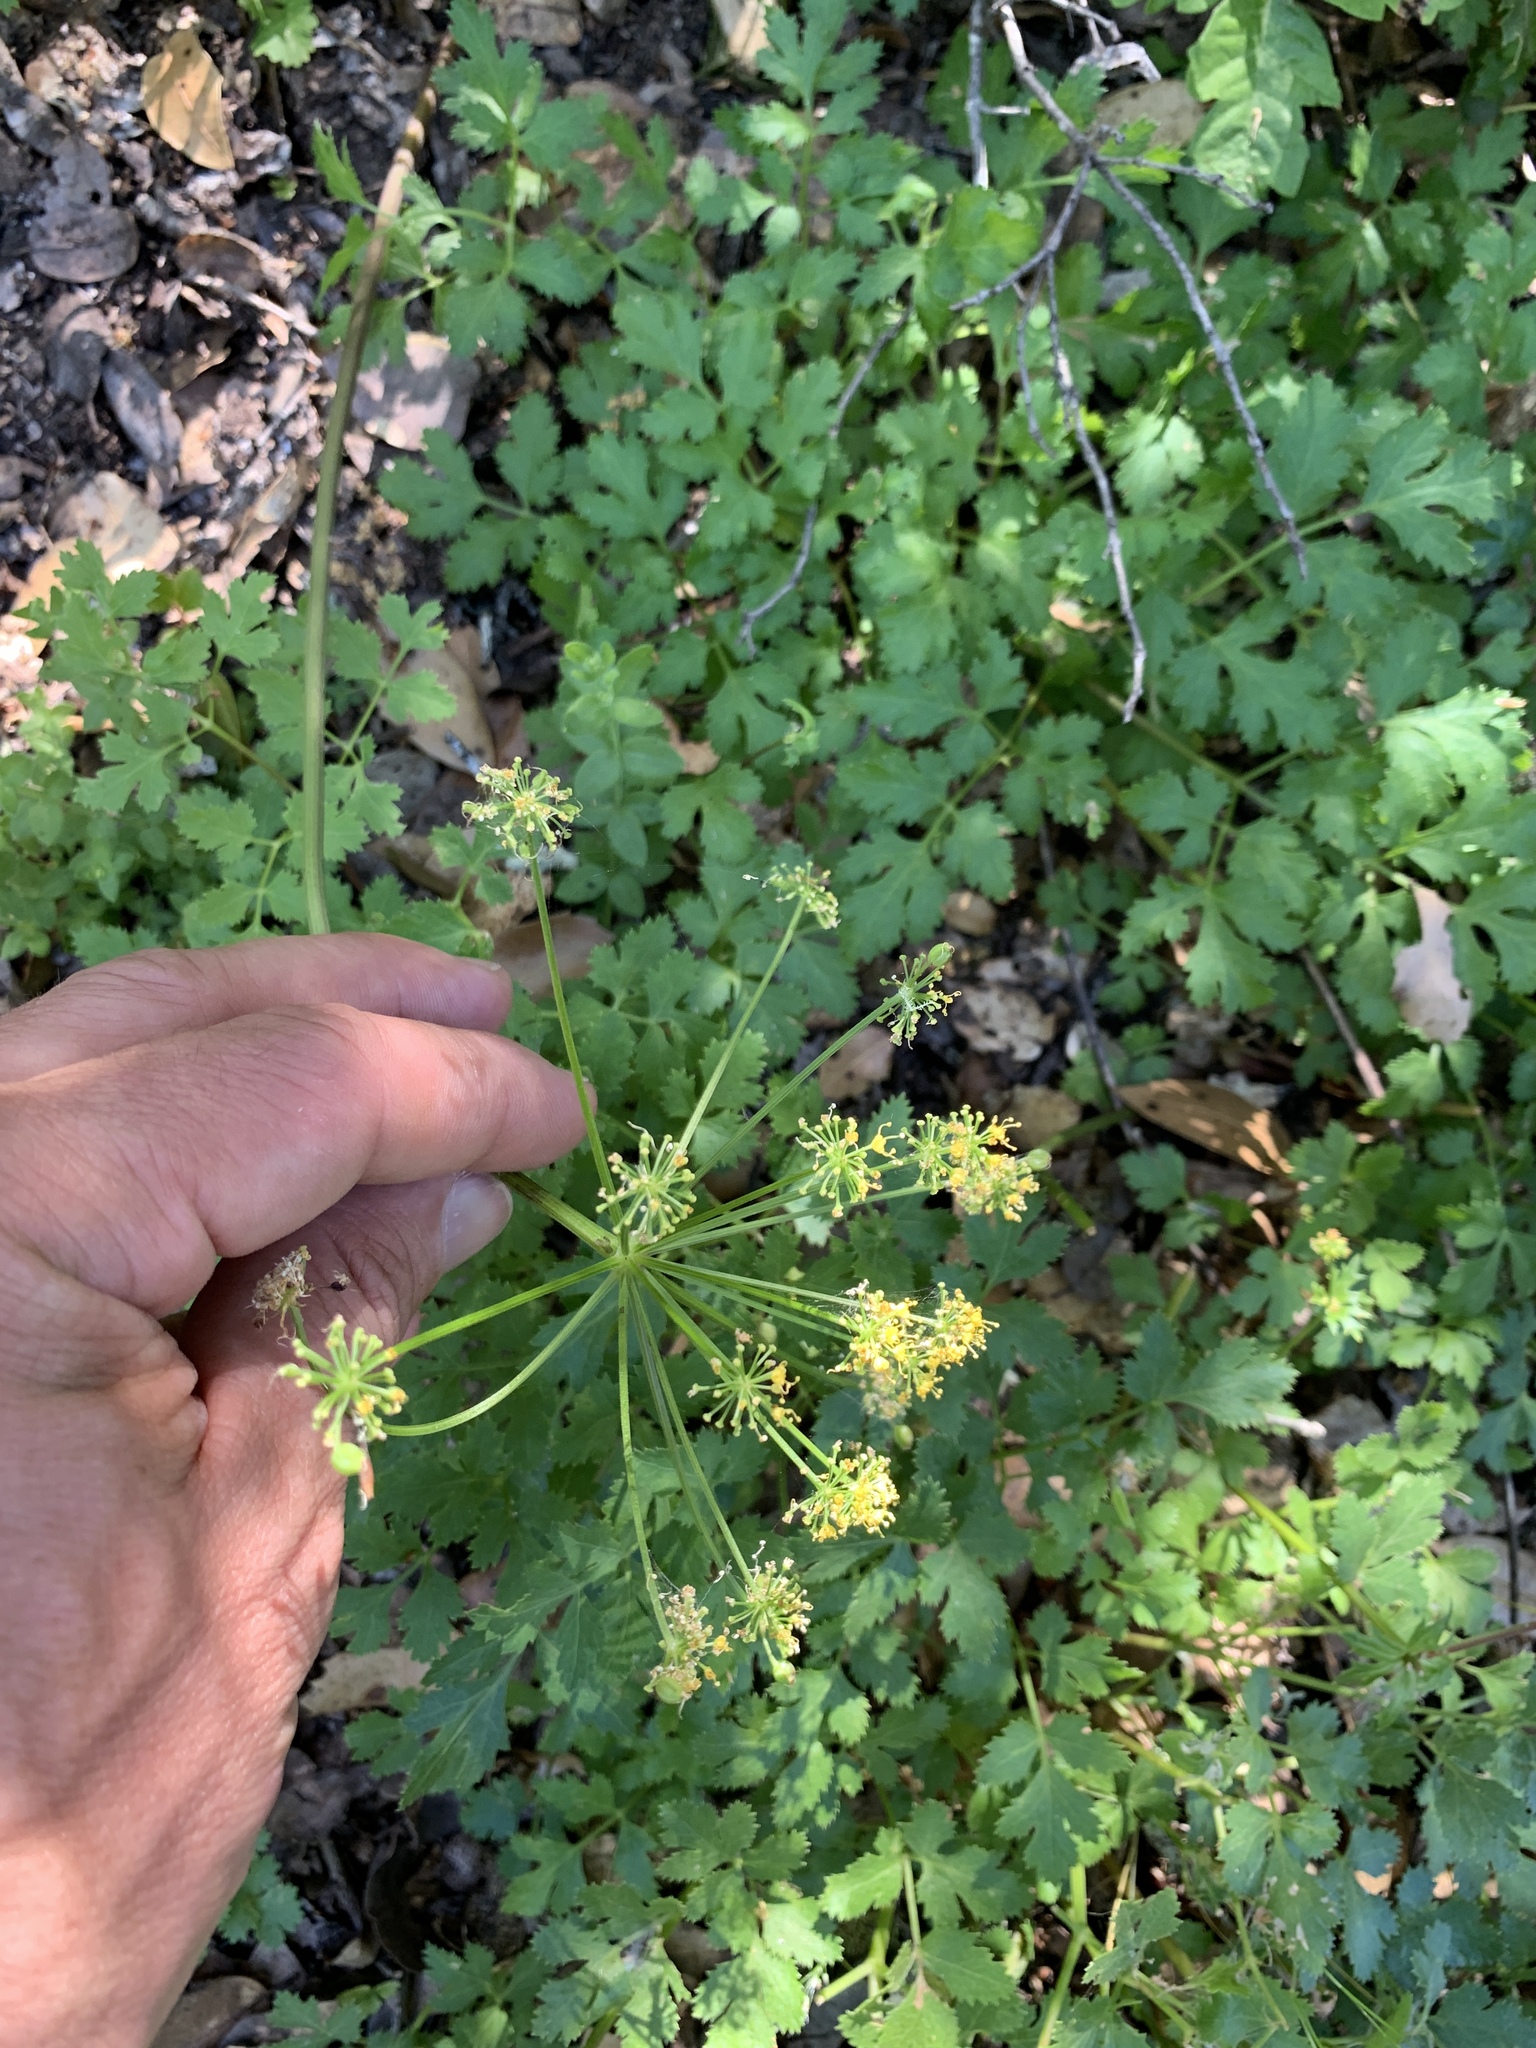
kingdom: Plantae
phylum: Tracheophyta
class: Magnoliopsida
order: Apiales
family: Apiaceae
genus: Tauschia
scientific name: Tauschia kelloggii
